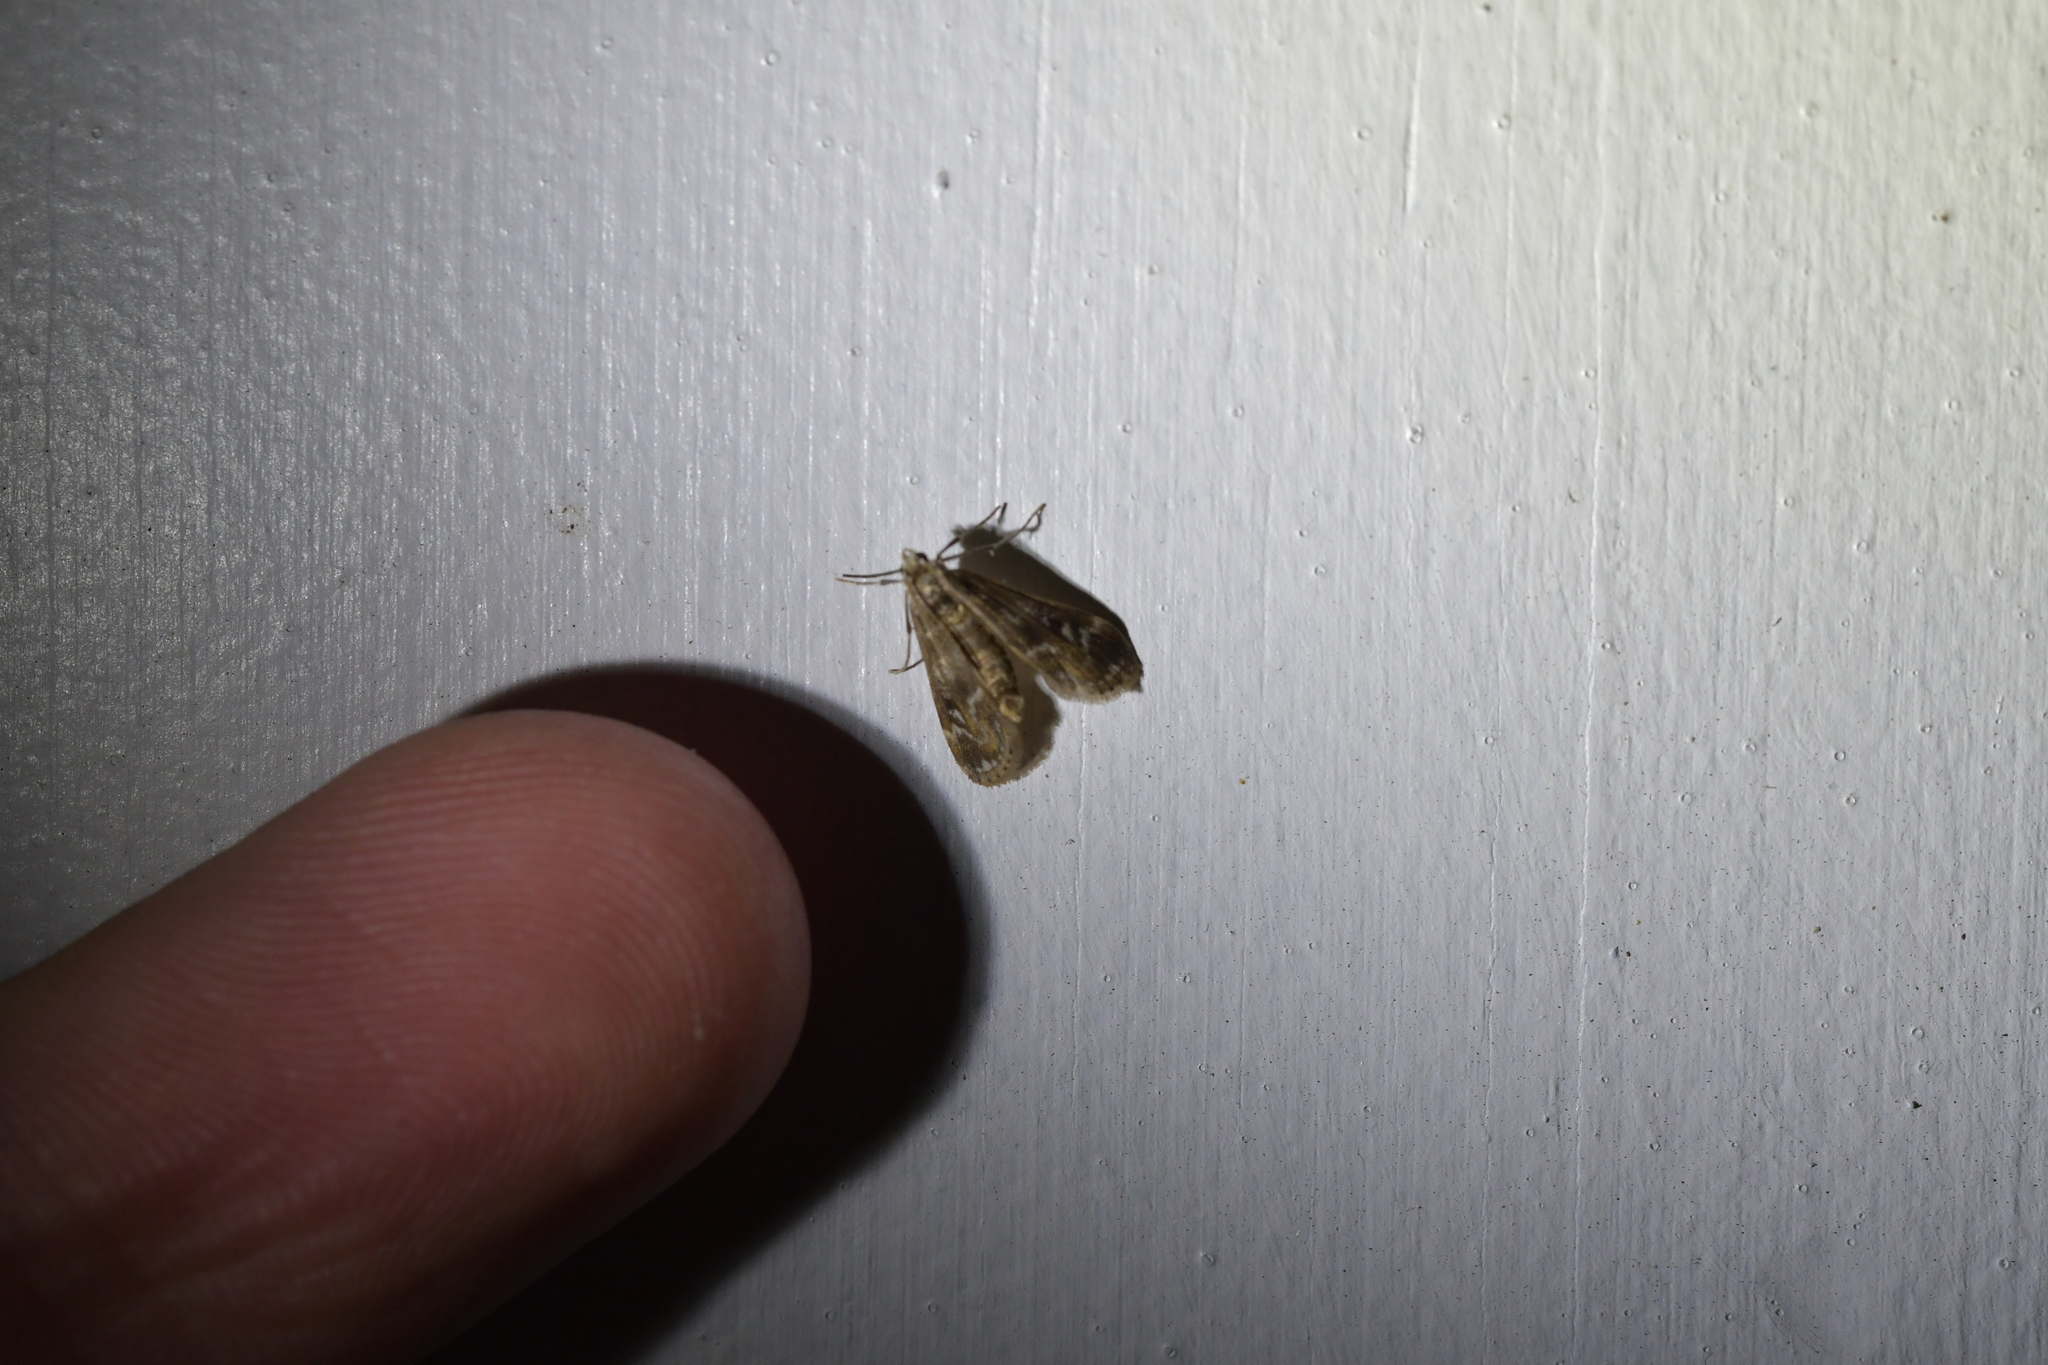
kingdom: Animalia
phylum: Arthropoda
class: Insecta
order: Lepidoptera
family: Crambidae
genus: Hygraula
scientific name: Hygraula nitens
